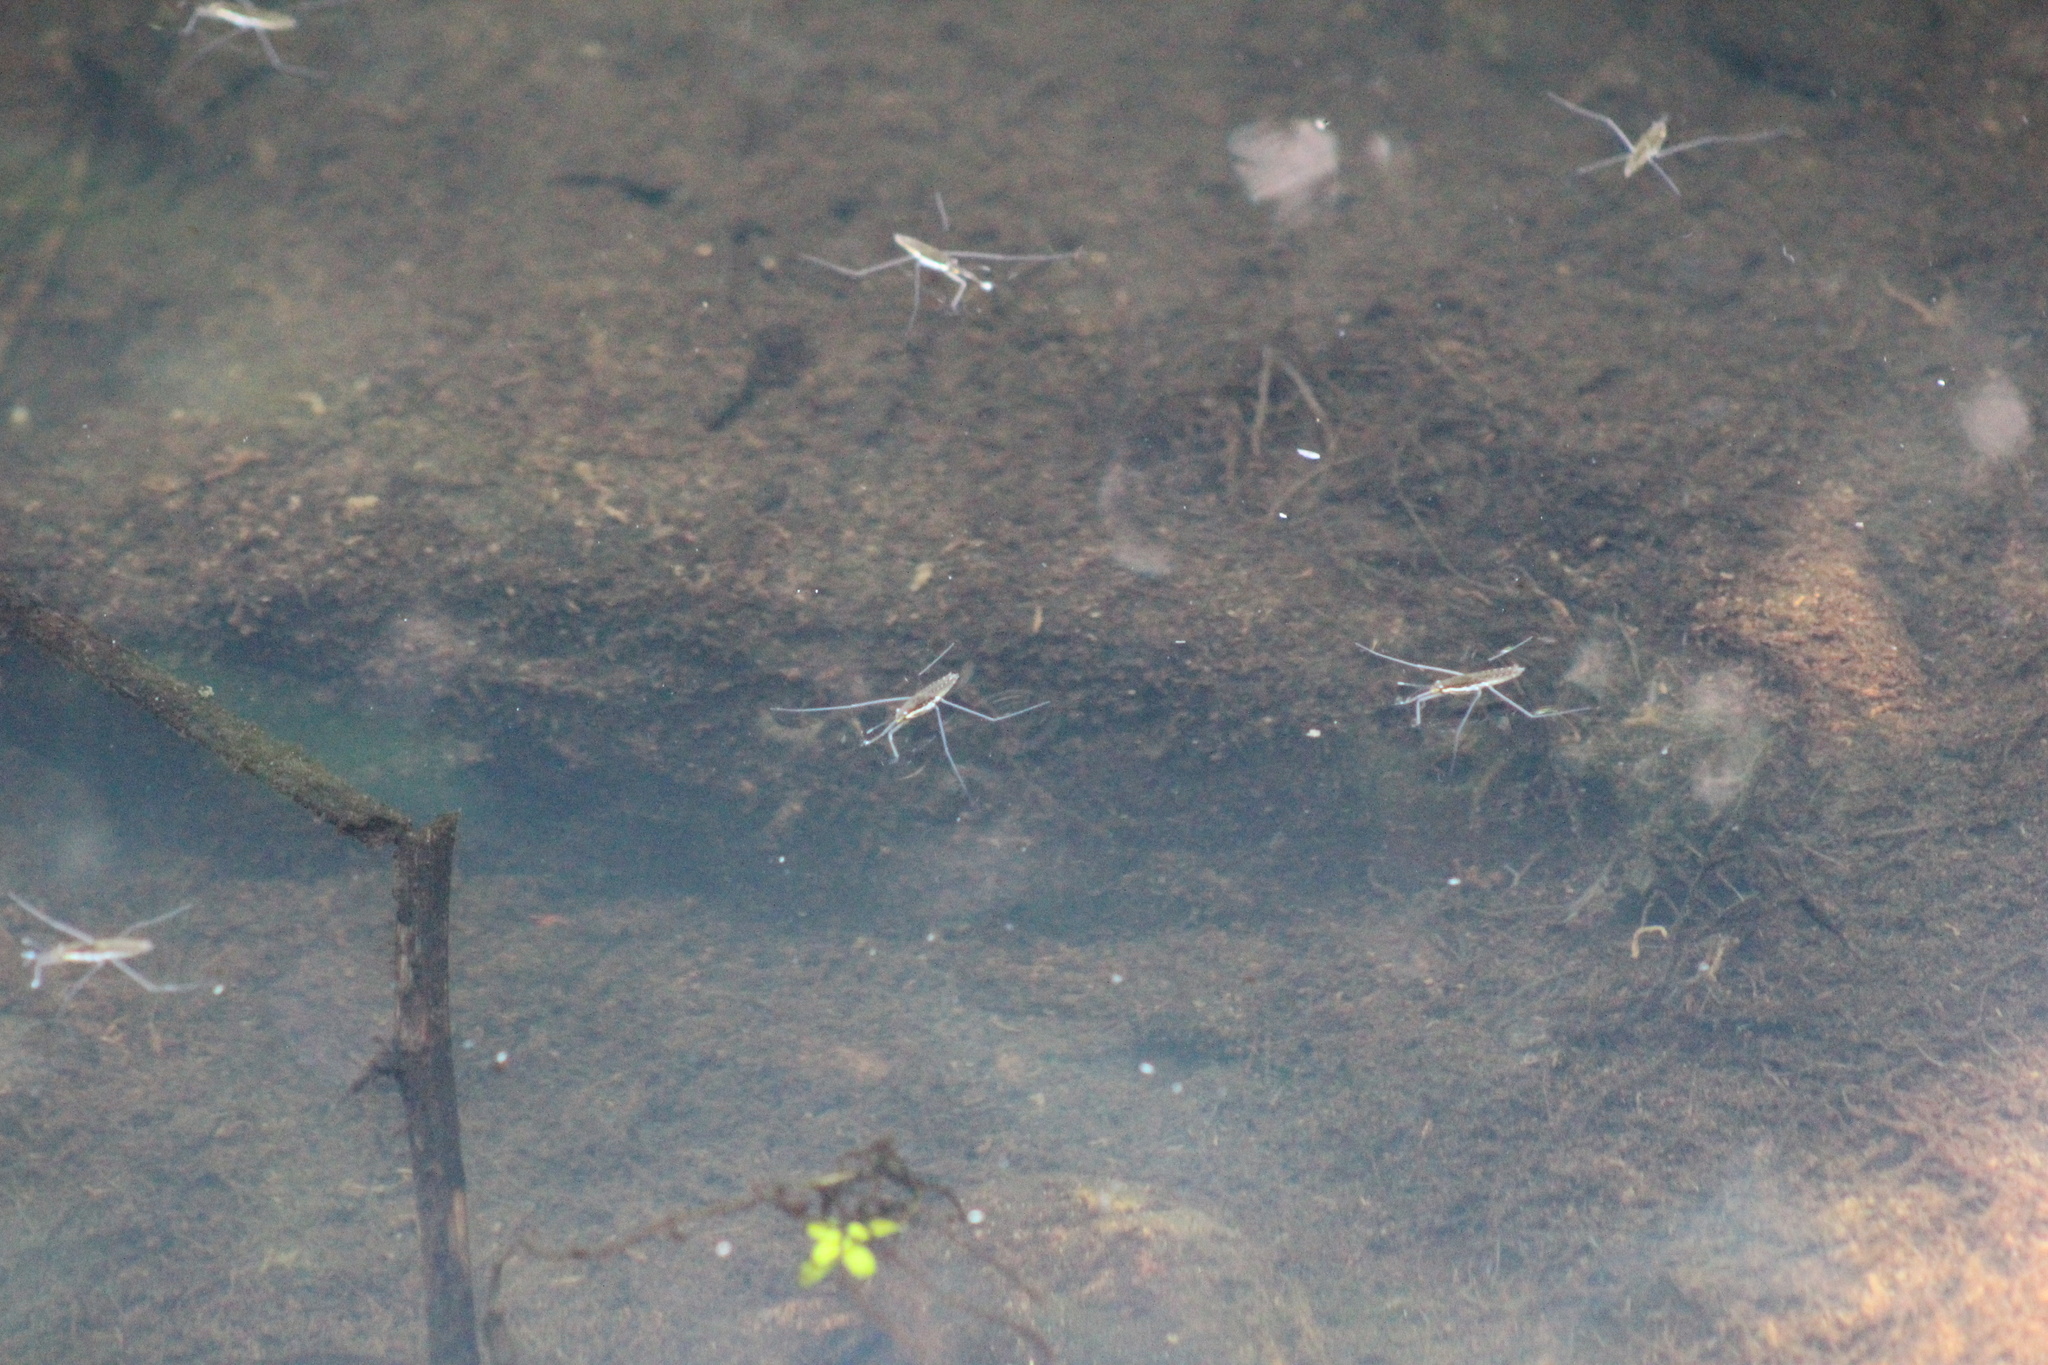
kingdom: Animalia
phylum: Arthropoda
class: Insecta
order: Hemiptera
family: Gerridae
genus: Aquarius
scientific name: Aquarius remigis
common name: Common water strider
